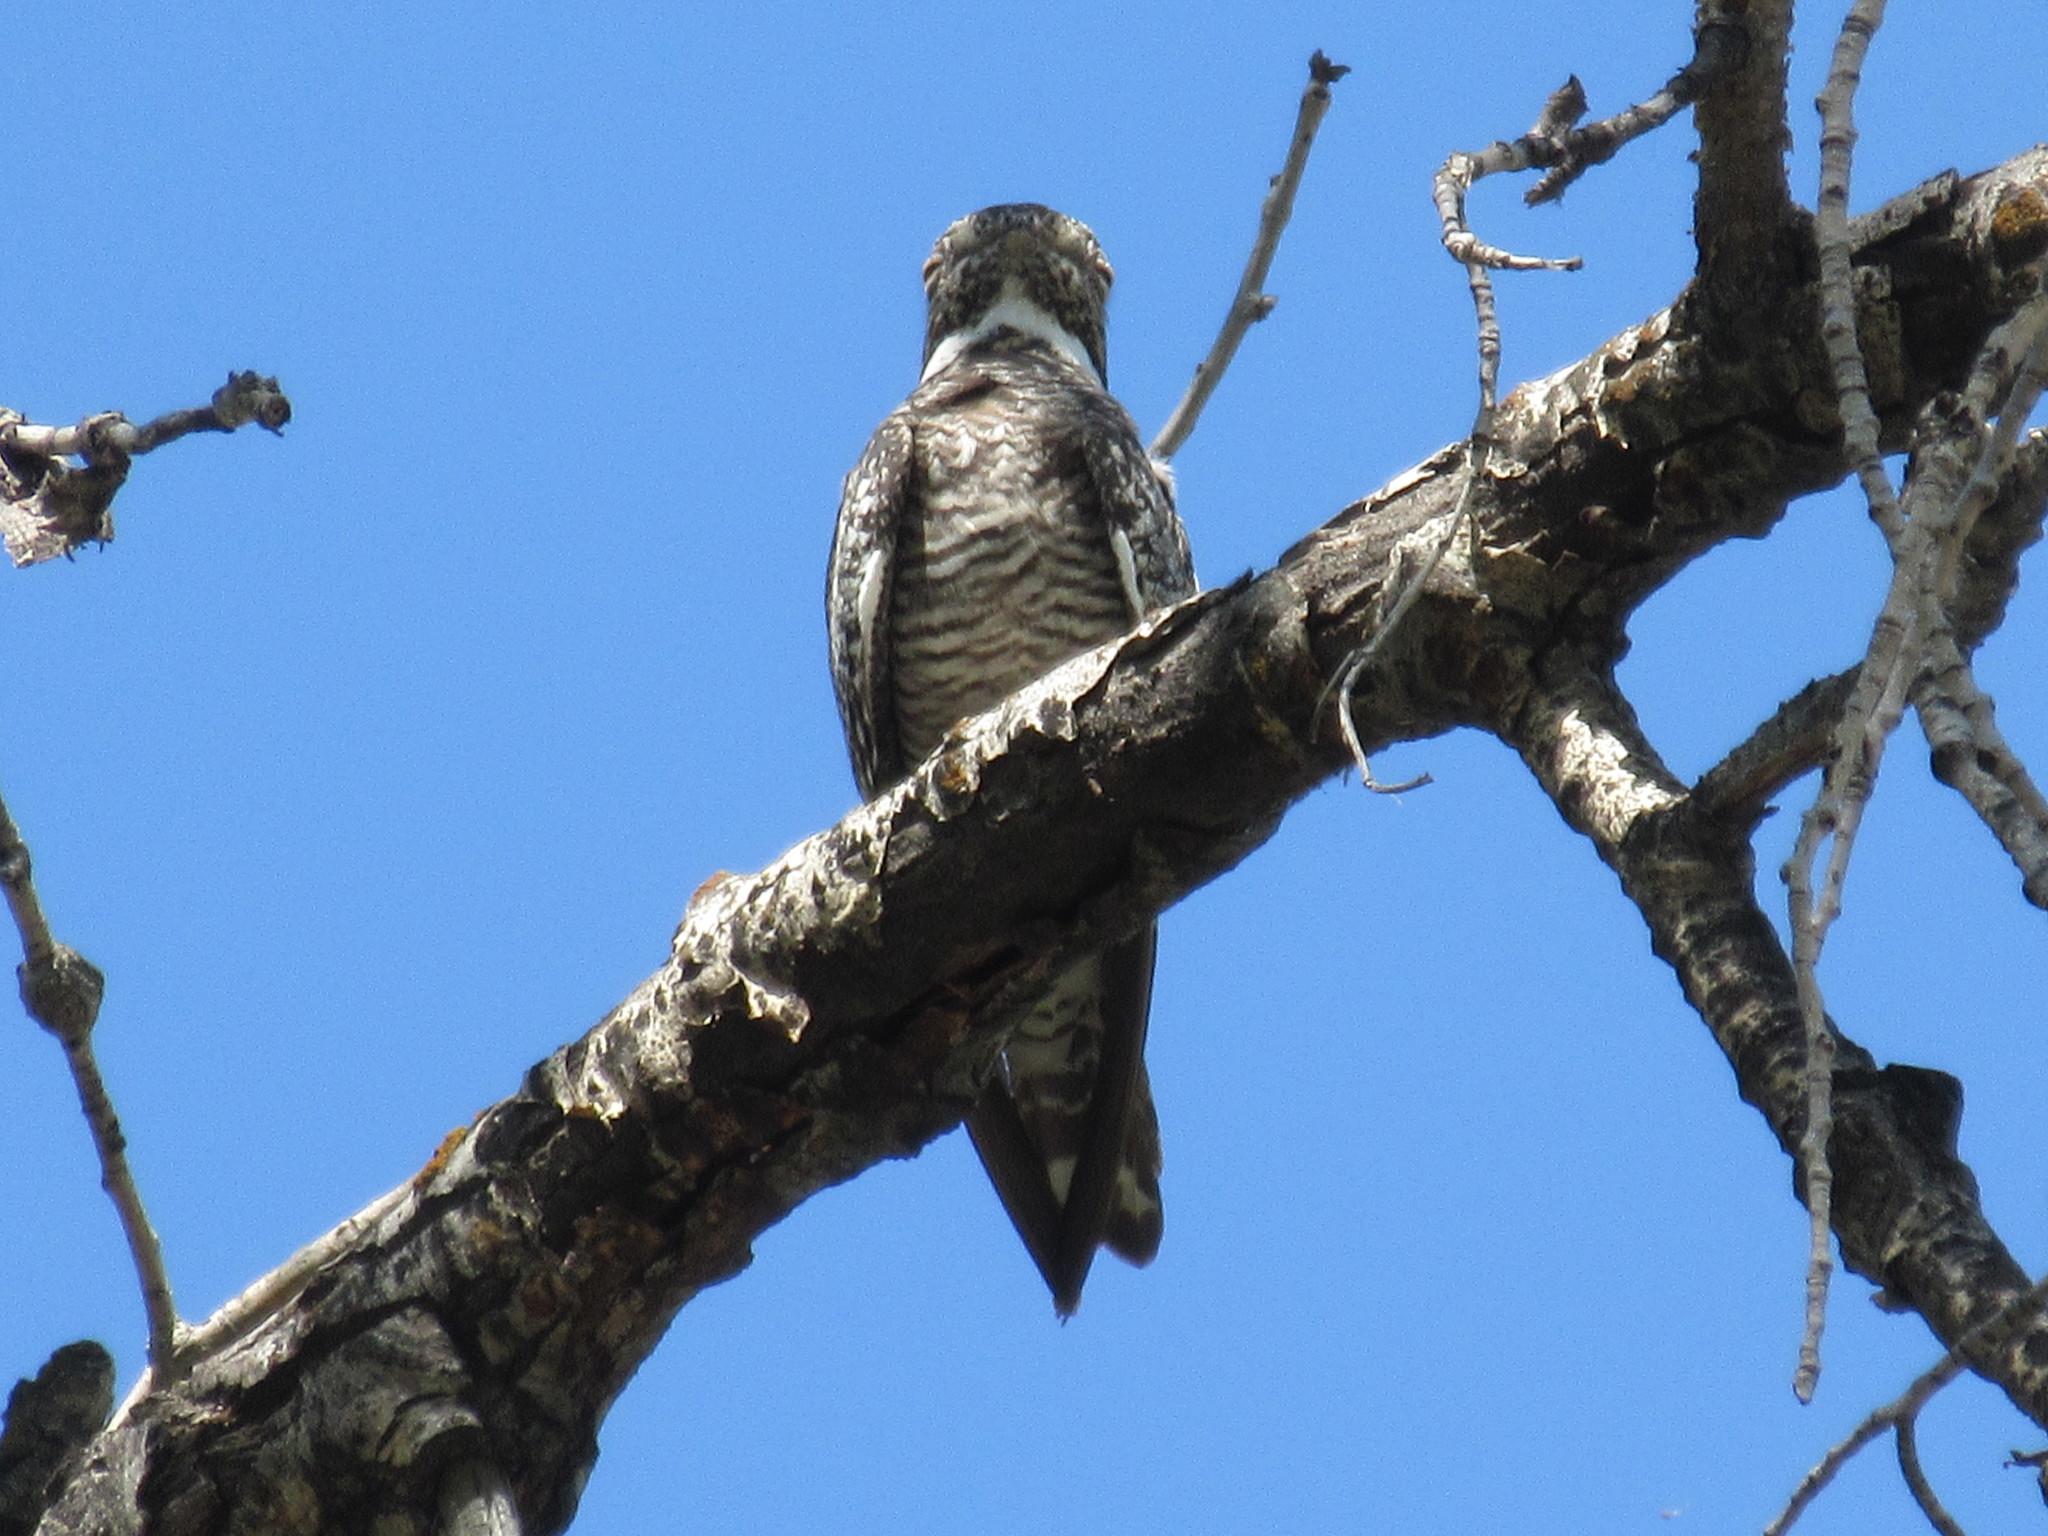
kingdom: Animalia
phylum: Chordata
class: Aves
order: Caprimulgiformes
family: Caprimulgidae
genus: Chordeiles
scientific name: Chordeiles minor
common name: Common nighthawk
